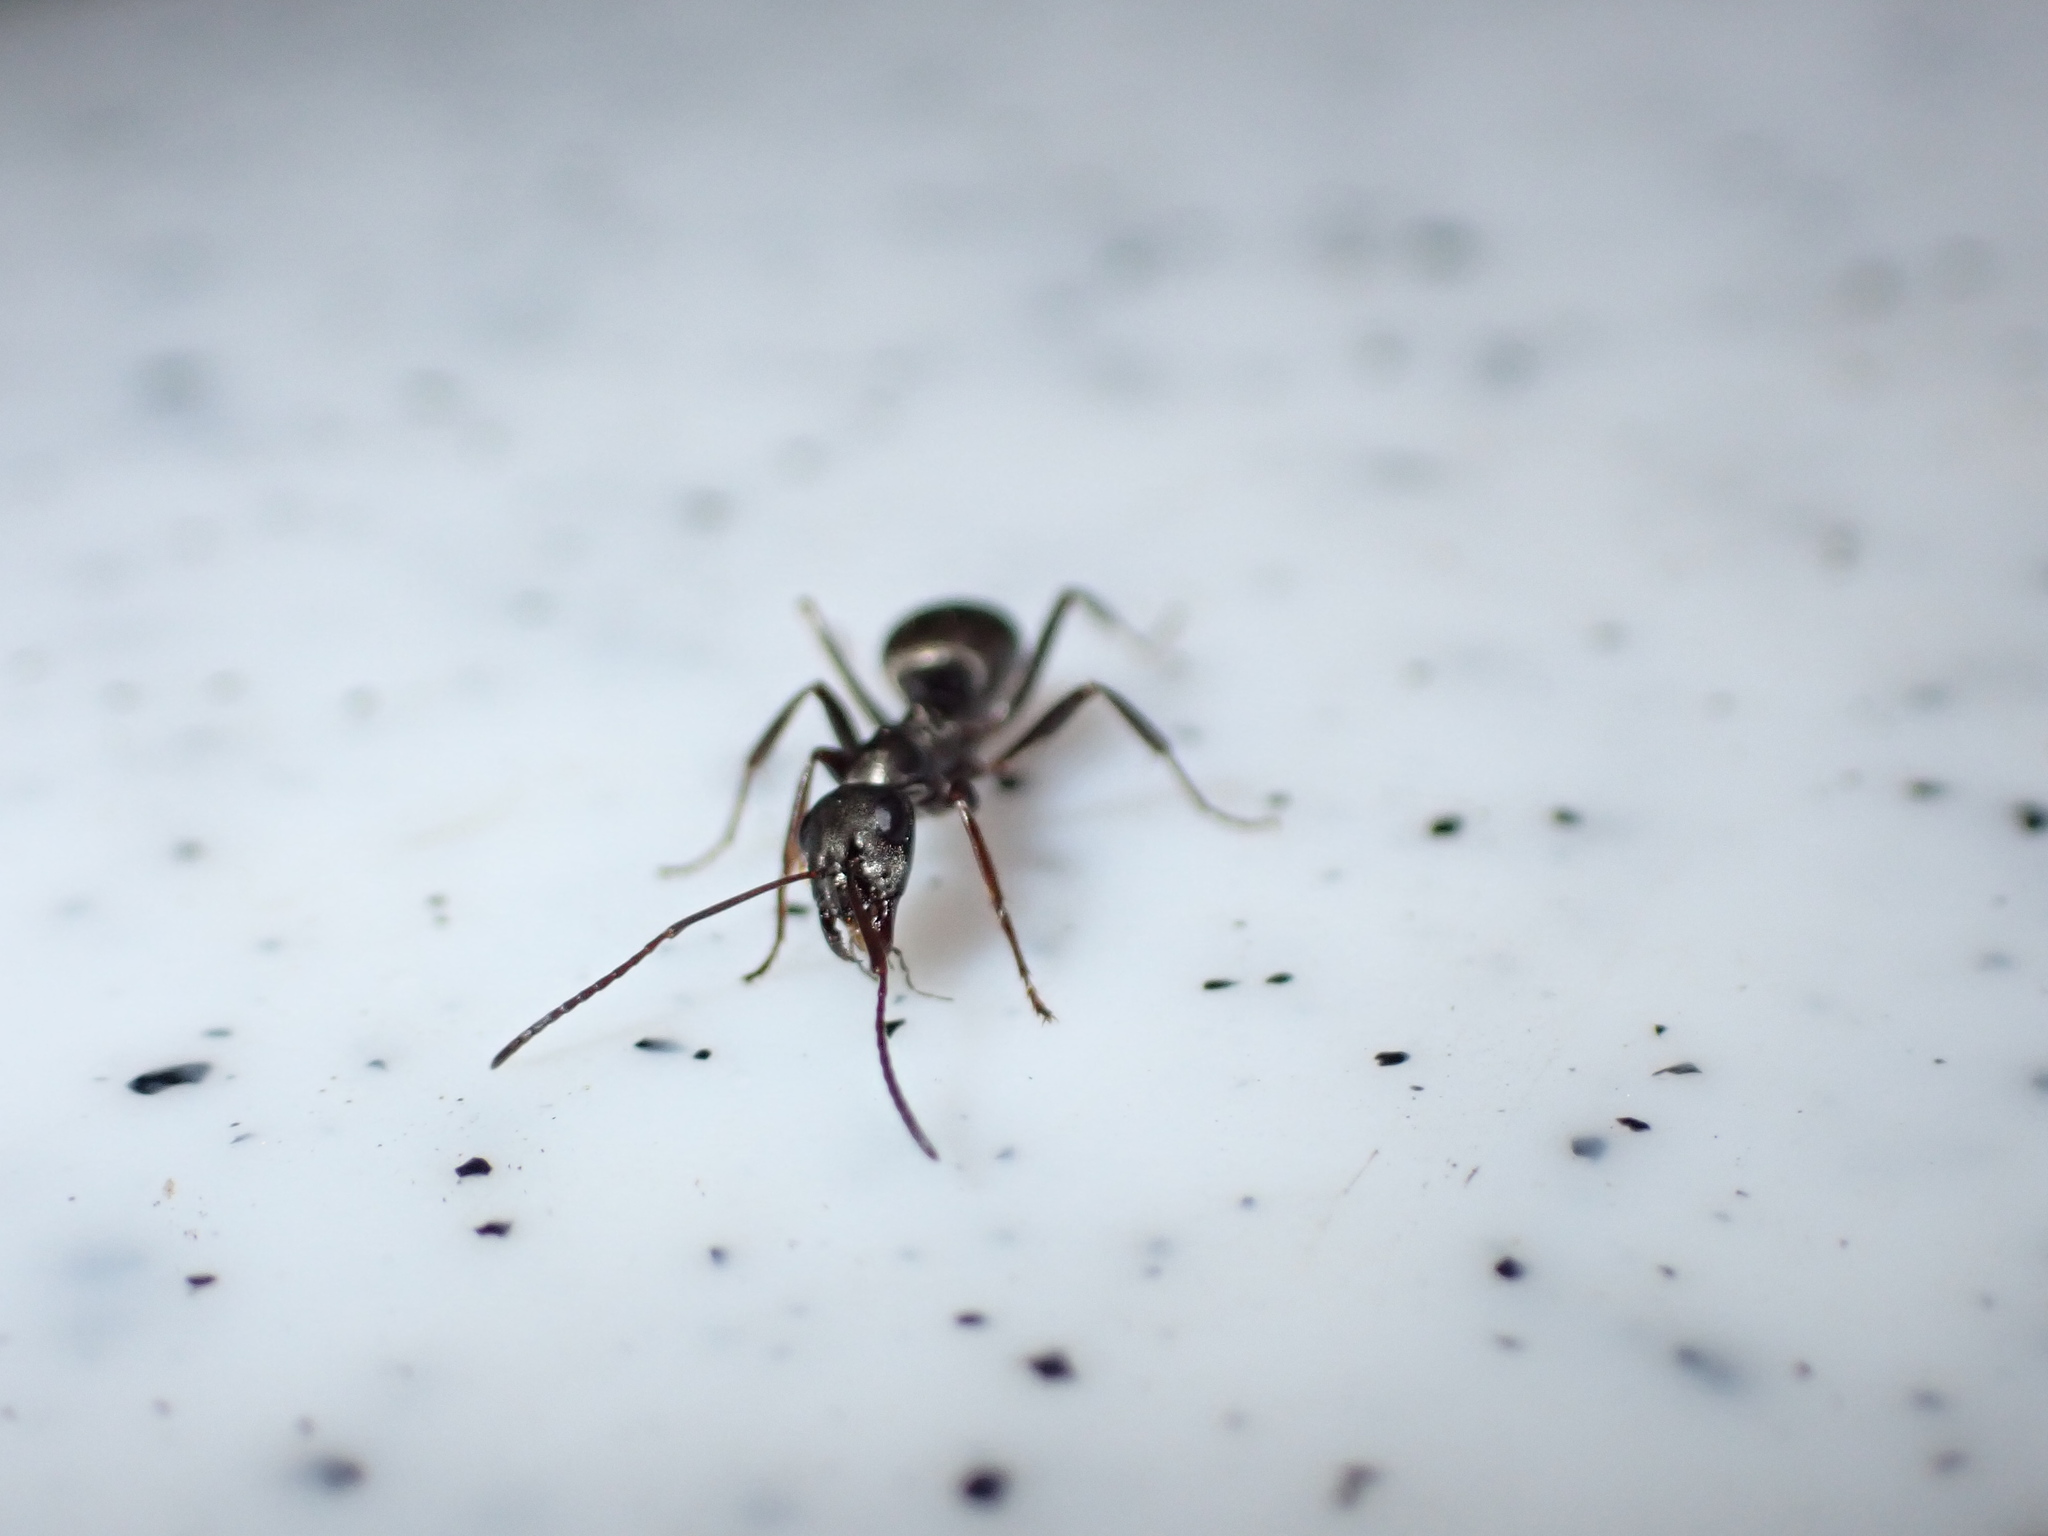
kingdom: Animalia
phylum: Arthropoda
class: Insecta
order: Hymenoptera
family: Formicidae
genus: Formica
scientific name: Formica
